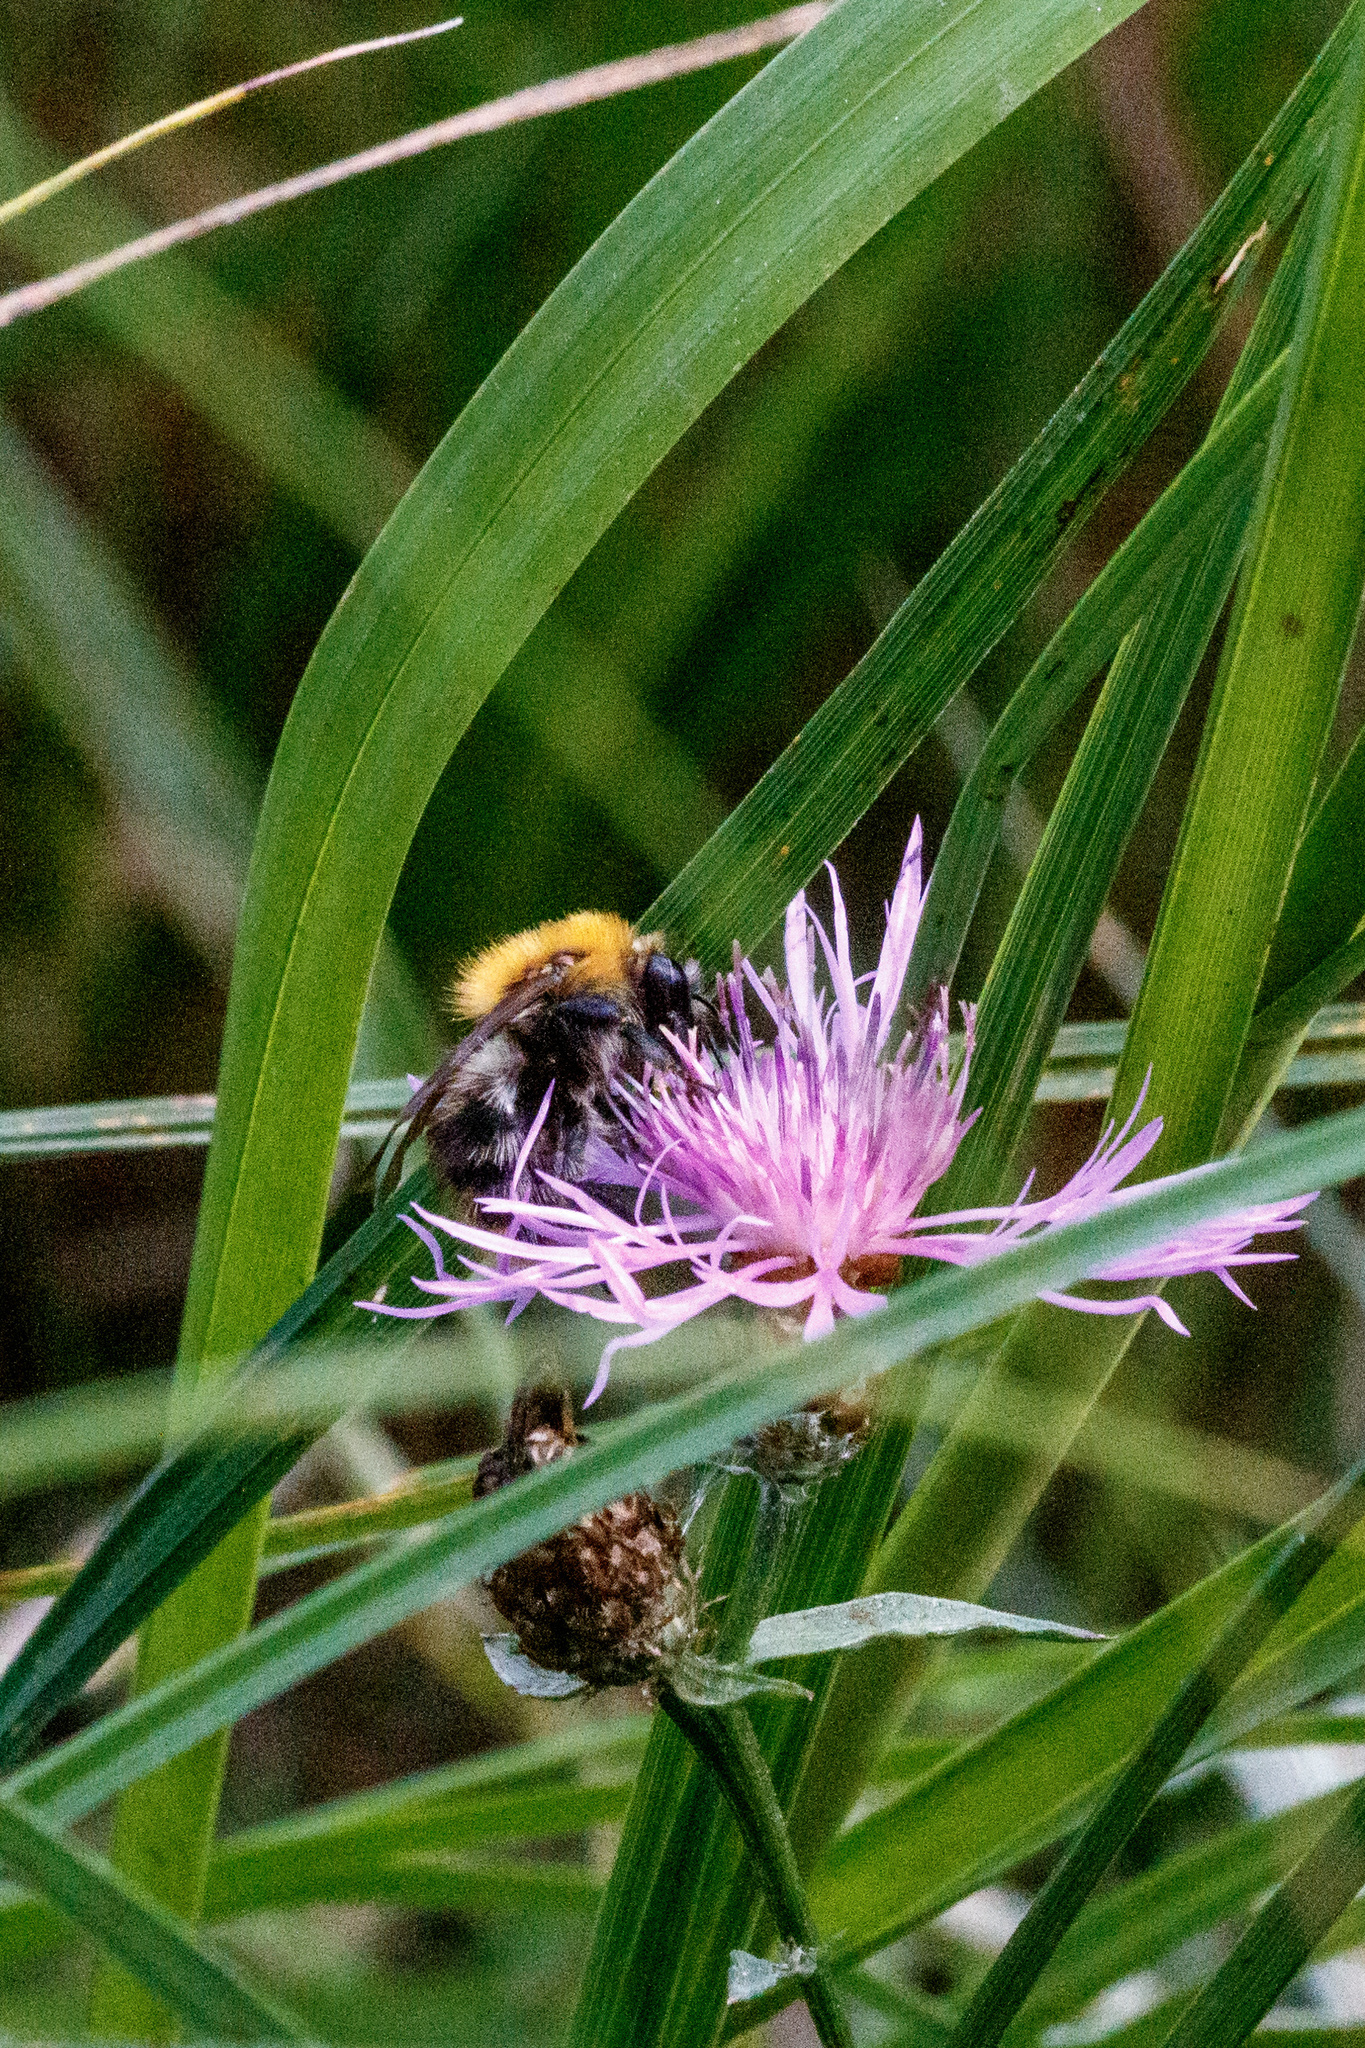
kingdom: Animalia
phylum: Arthropoda
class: Insecta
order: Hymenoptera
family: Apidae
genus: Bombus
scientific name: Bombus pascuorum
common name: Common carder bee
